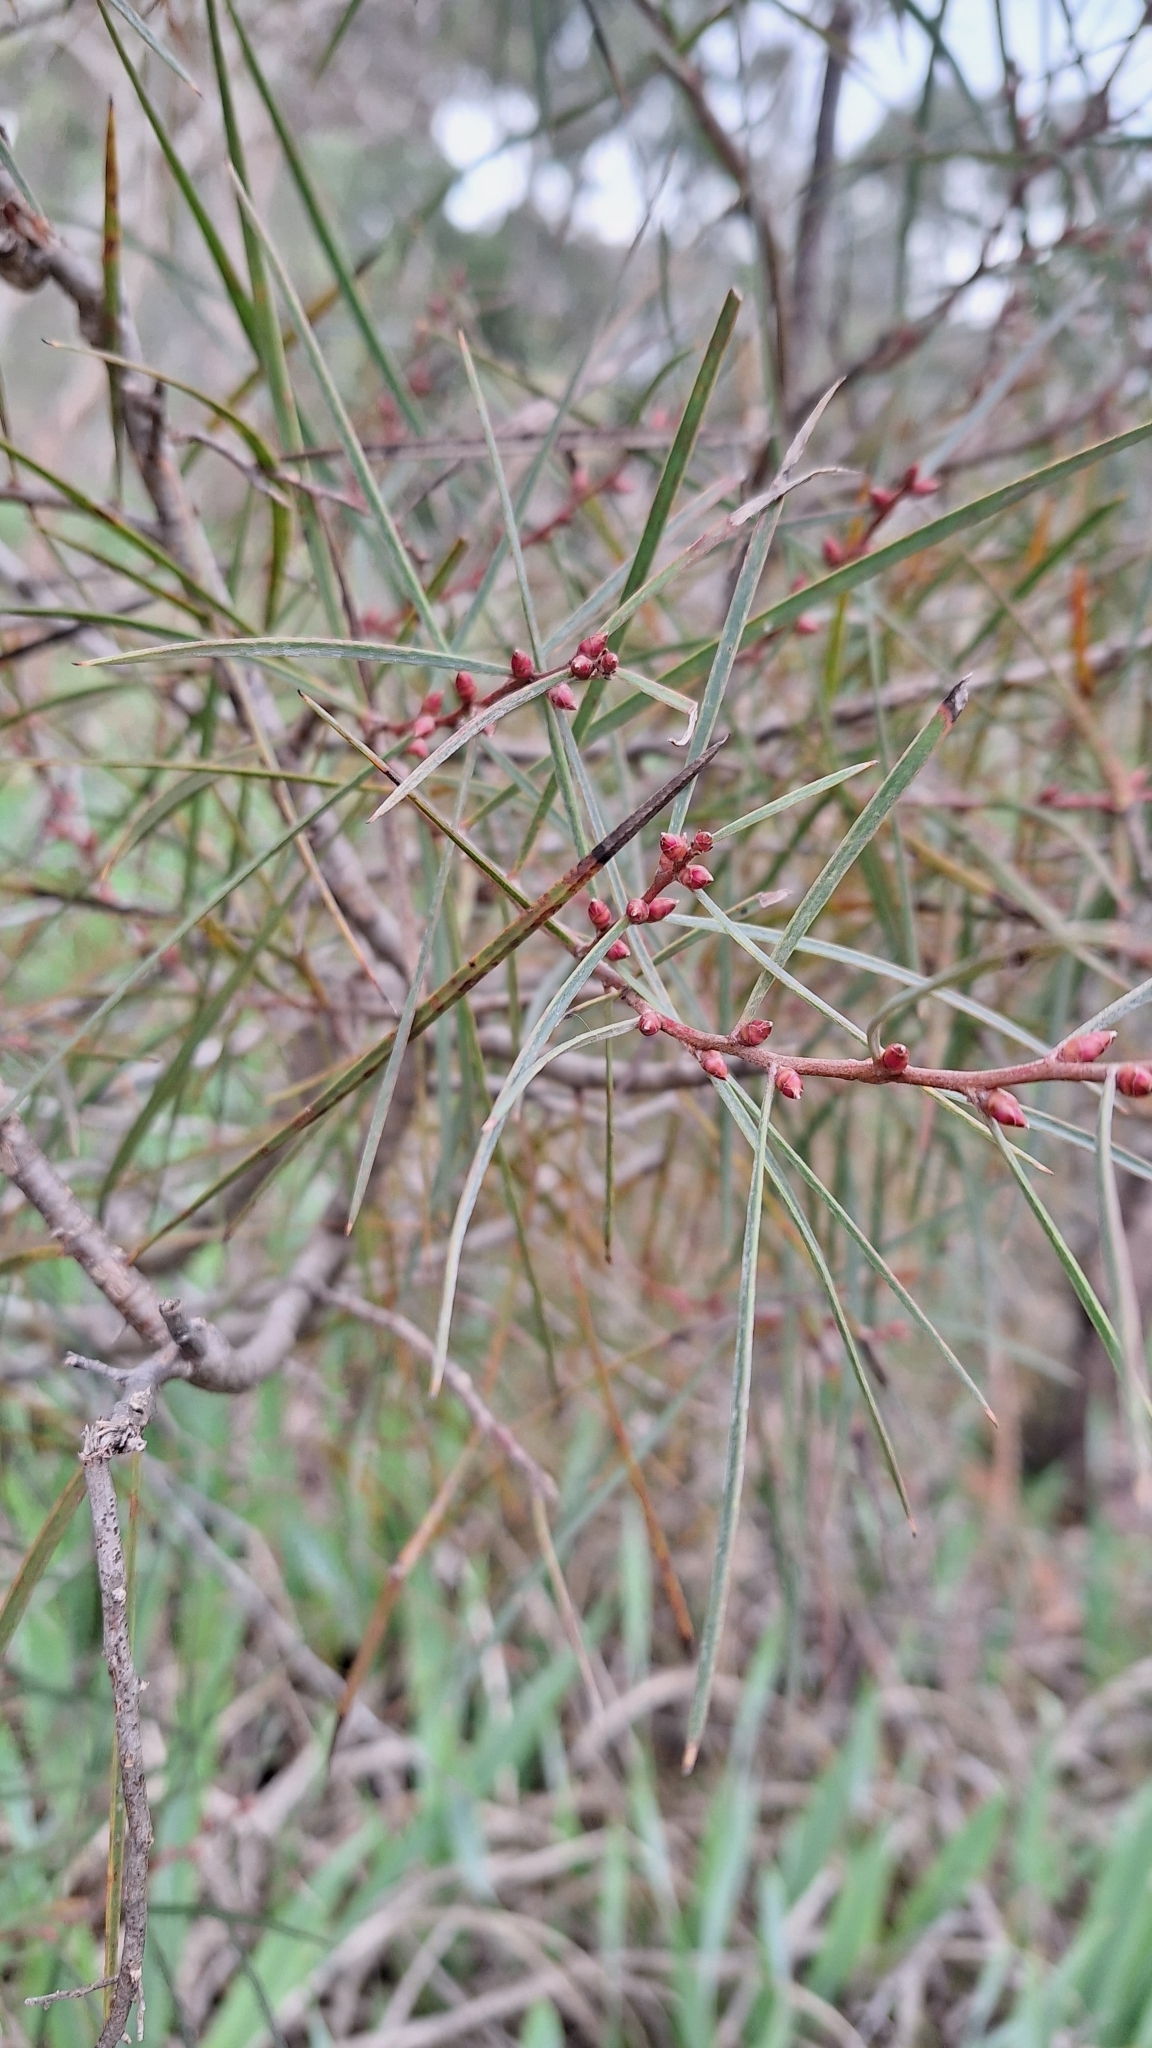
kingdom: Plantae
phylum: Tracheophyta
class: Magnoliopsida
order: Proteales
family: Proteaceae
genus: Hakea
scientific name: Hakea carinata
